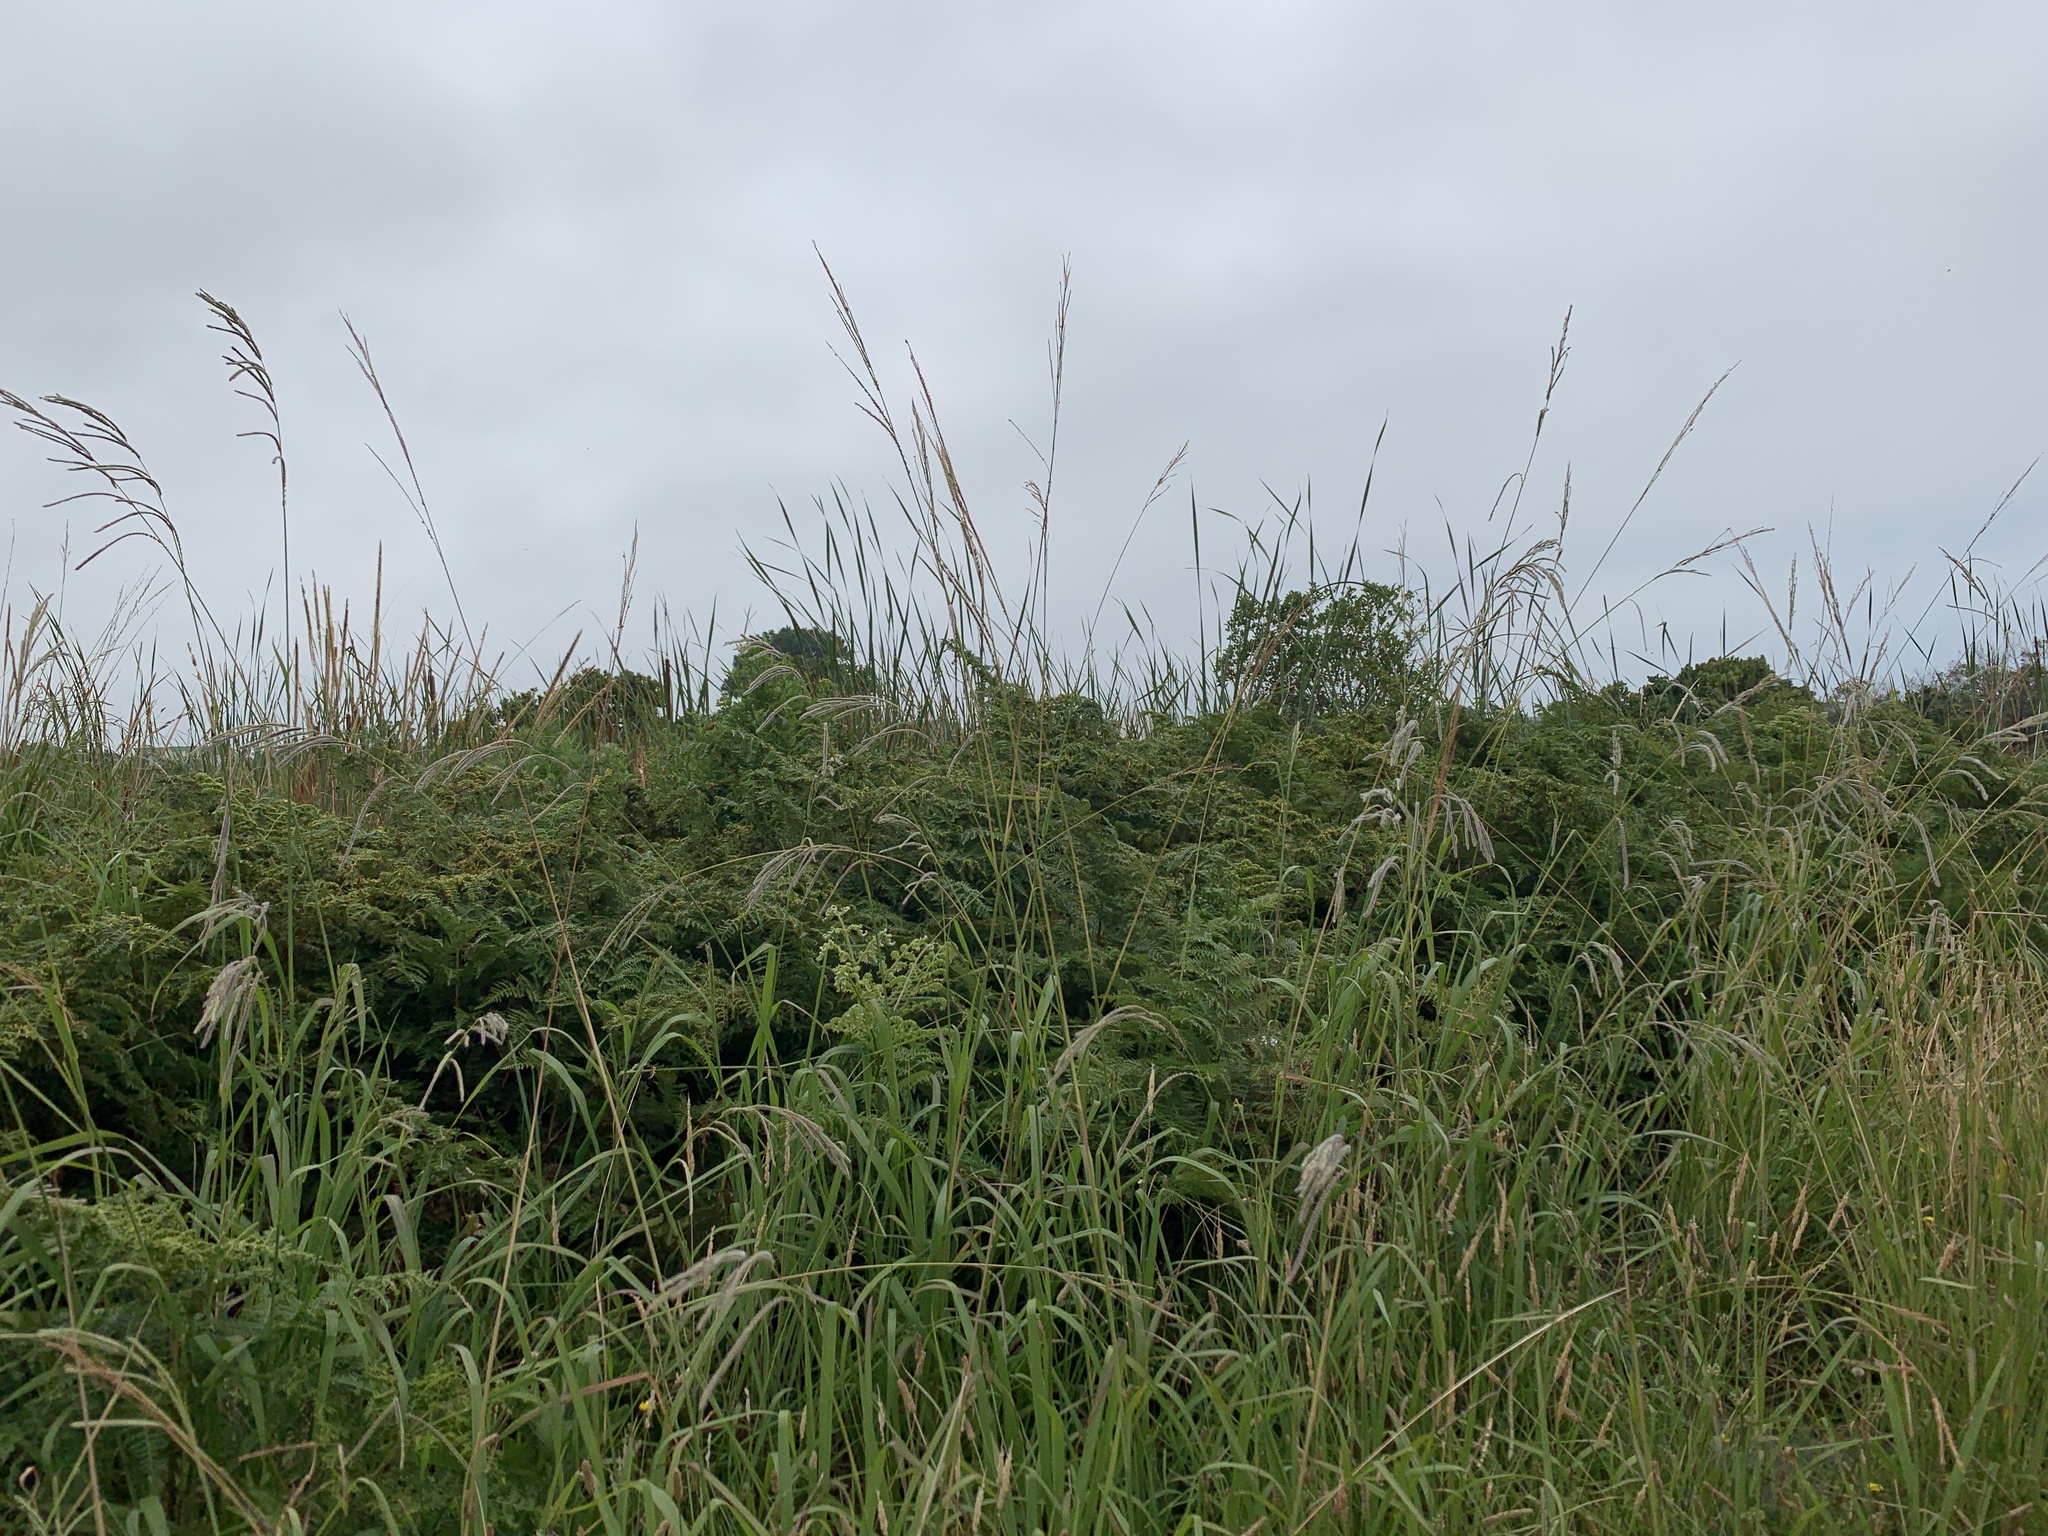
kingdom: Plantae
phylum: Tracheophyta
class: Liliopsida
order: Poales
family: Poaceae
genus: Paspalum
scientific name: Paspalum urvillei
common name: Vasey's grass
